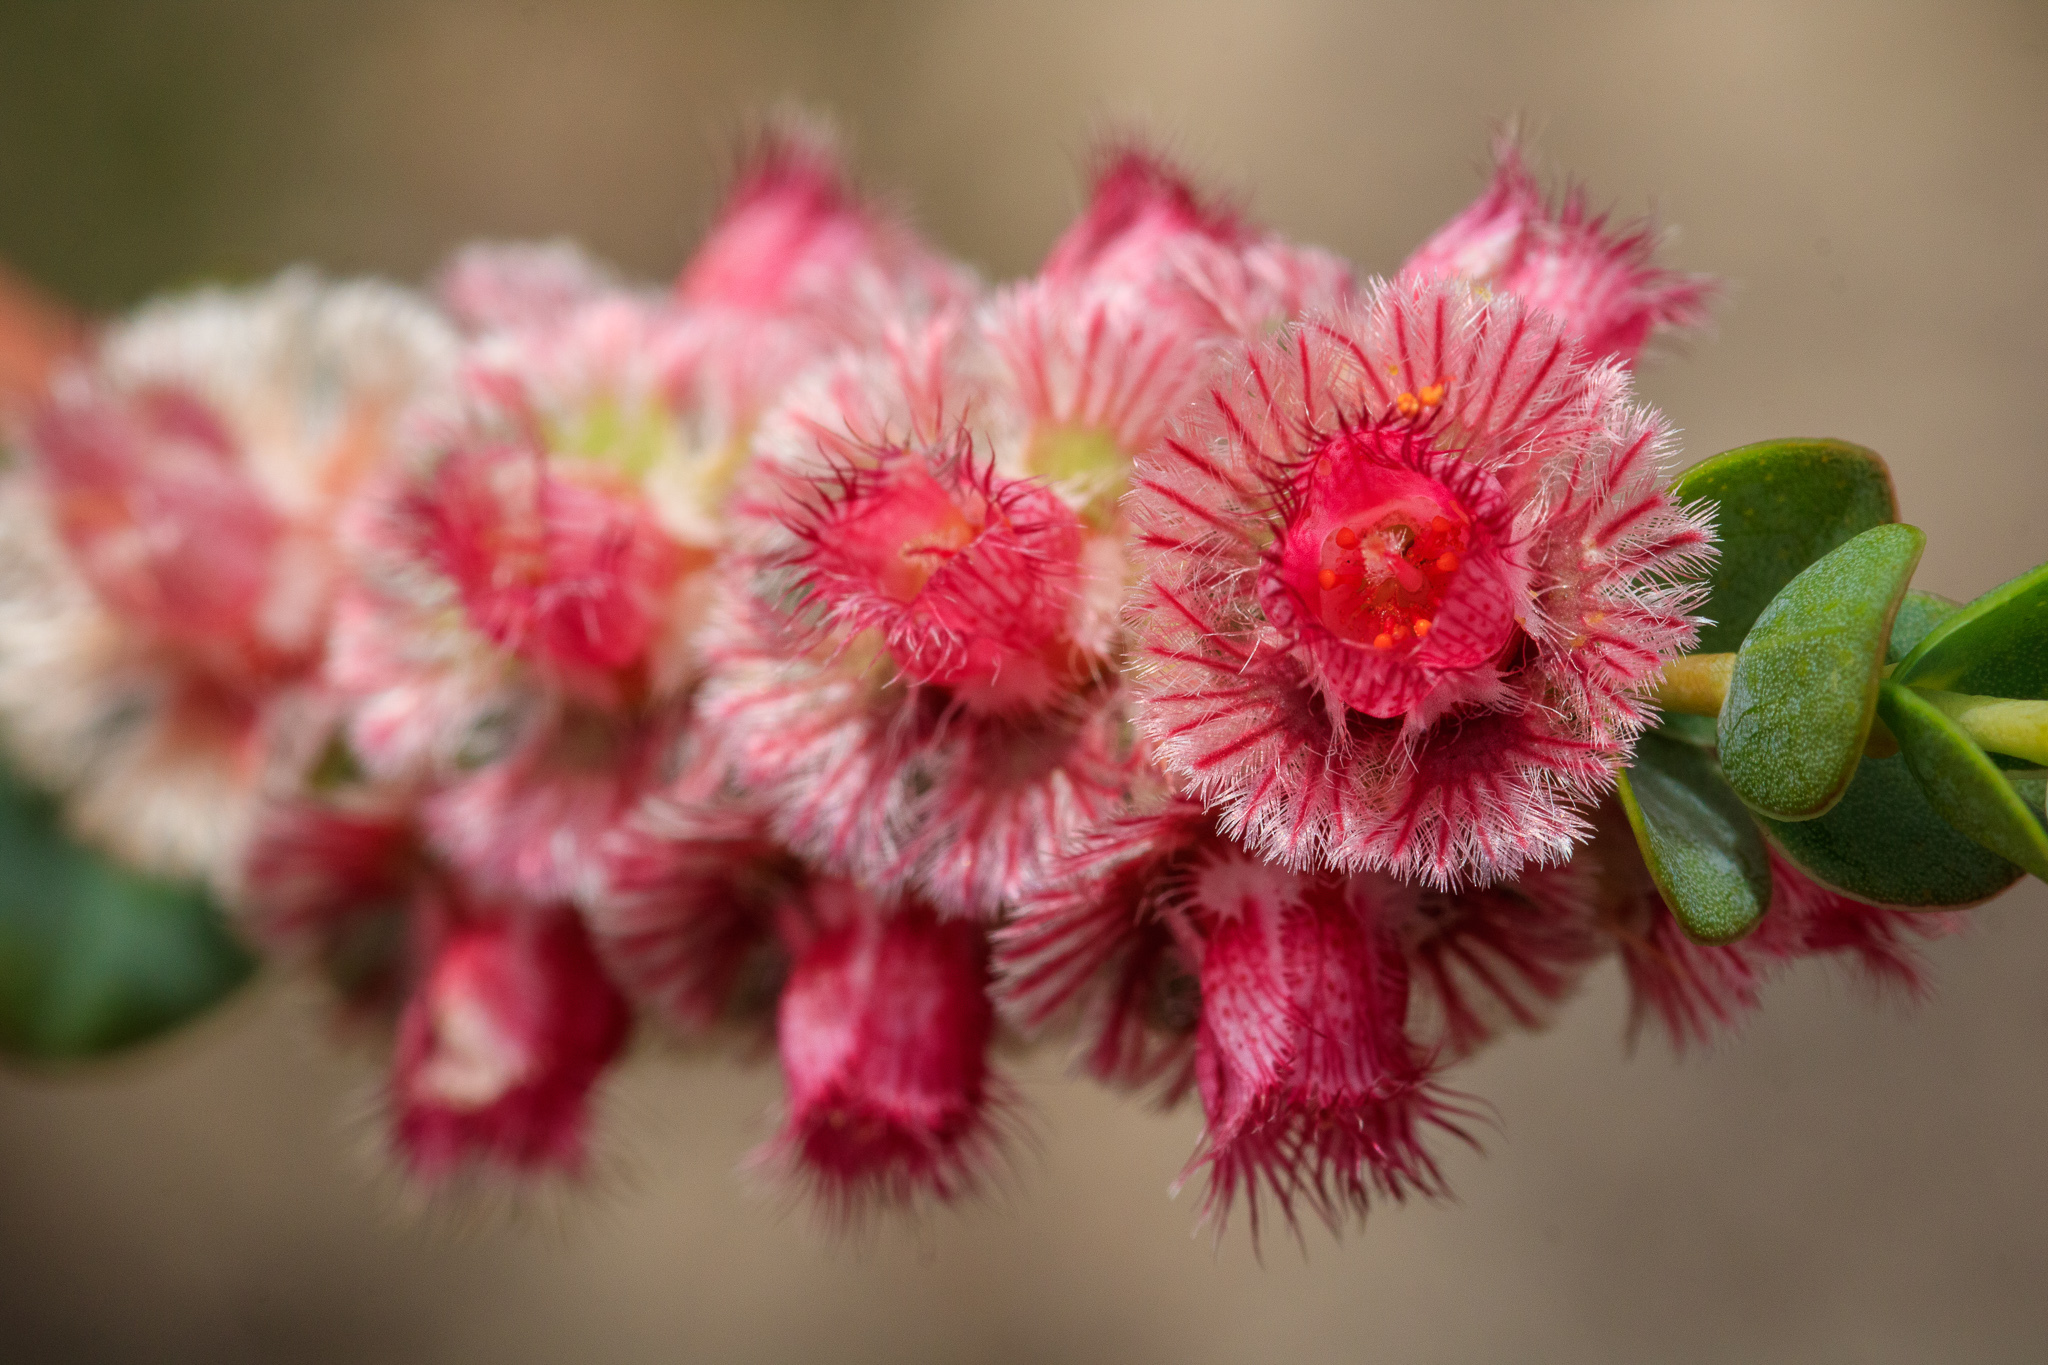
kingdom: Plantae
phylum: Tracheophyta
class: Magnoliopsida
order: Myrtales
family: Myrtaceae
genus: Verticordia
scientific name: Verticordia argentea
